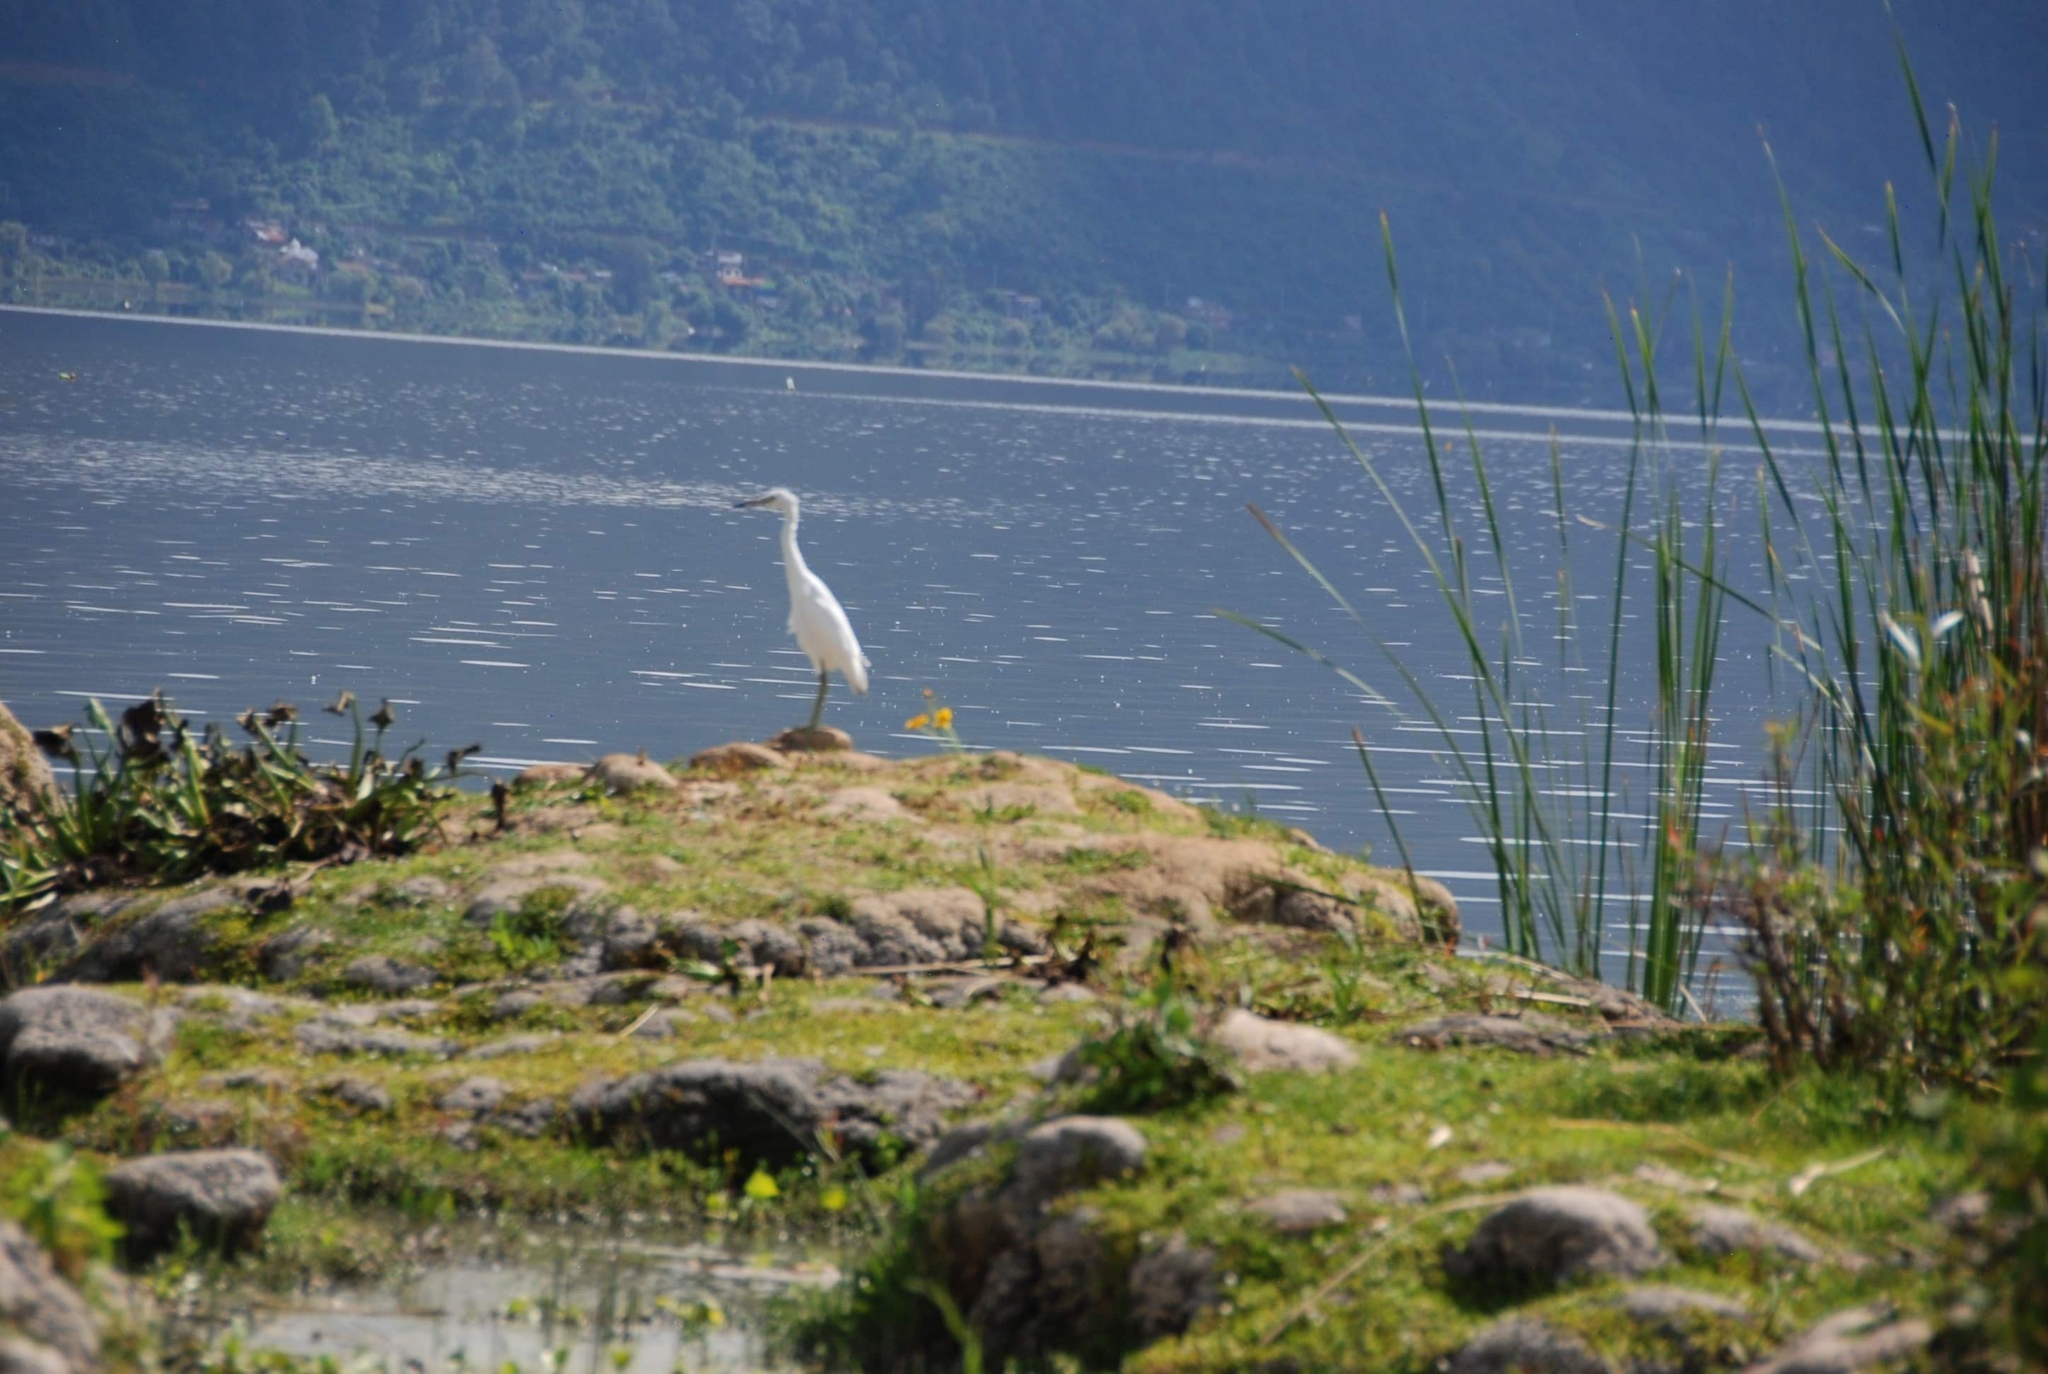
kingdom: Animalia
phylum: Chordata
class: Aves
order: Pelecaniformes
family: Ardeidae
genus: Ardea
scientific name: Ardea alba
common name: Great egret
